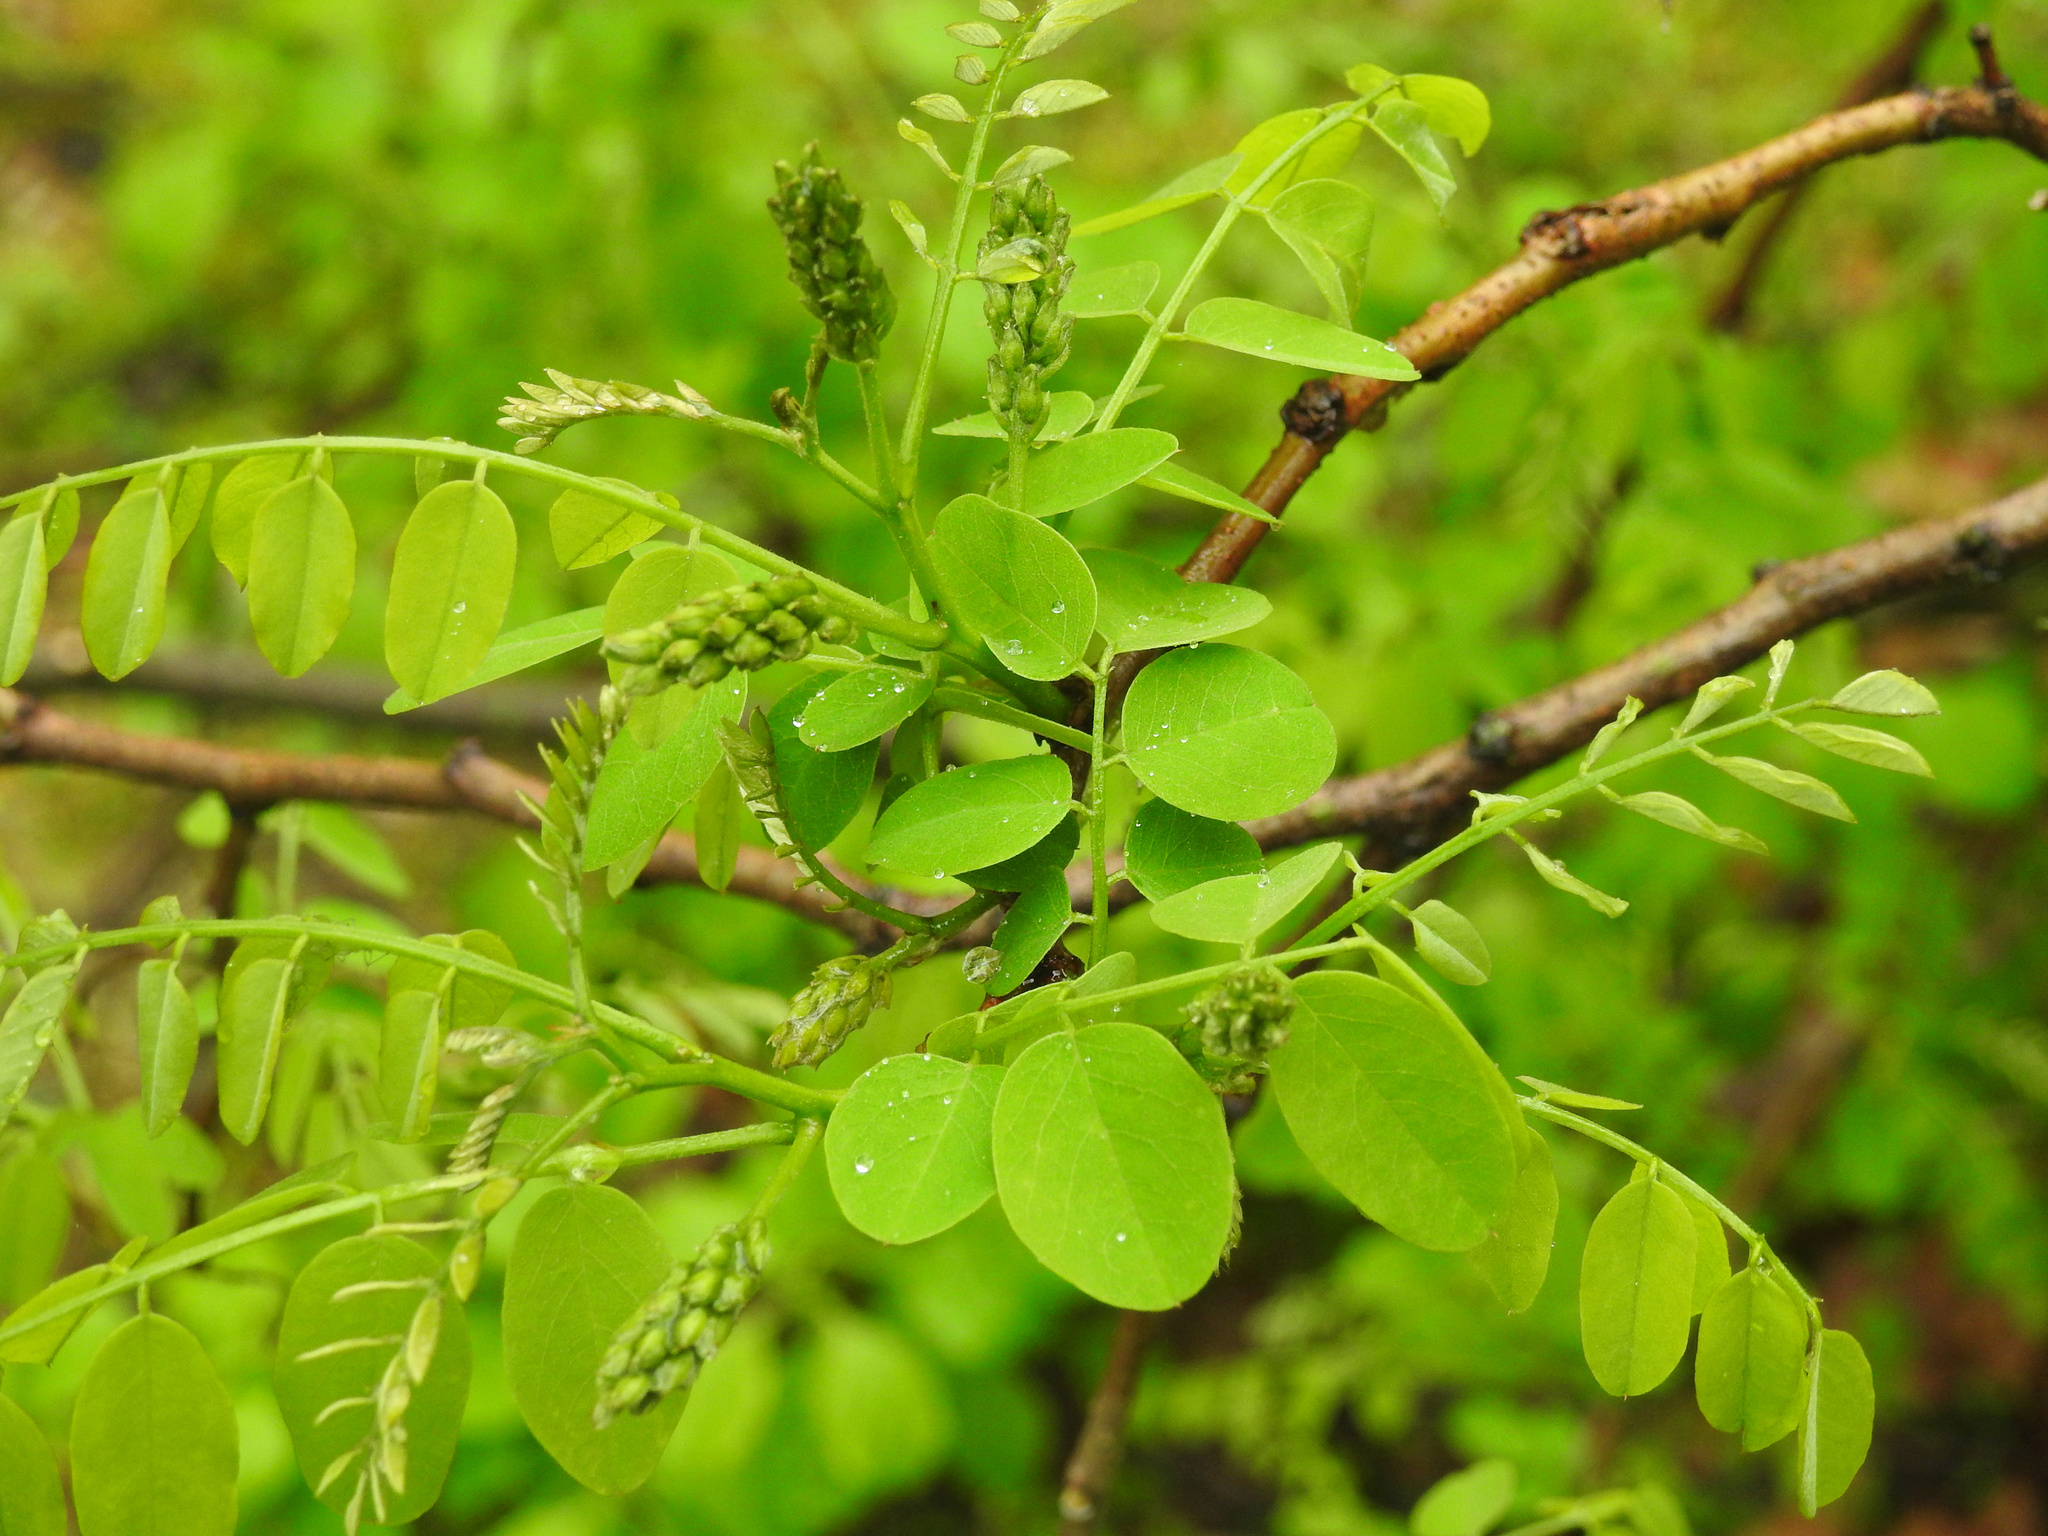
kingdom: Plantae
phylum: Tracheophyta
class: Magnoliopsida
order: Fabales
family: Fabaceae
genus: Robinia
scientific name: Robinia pseudoacacia
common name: Black locust
